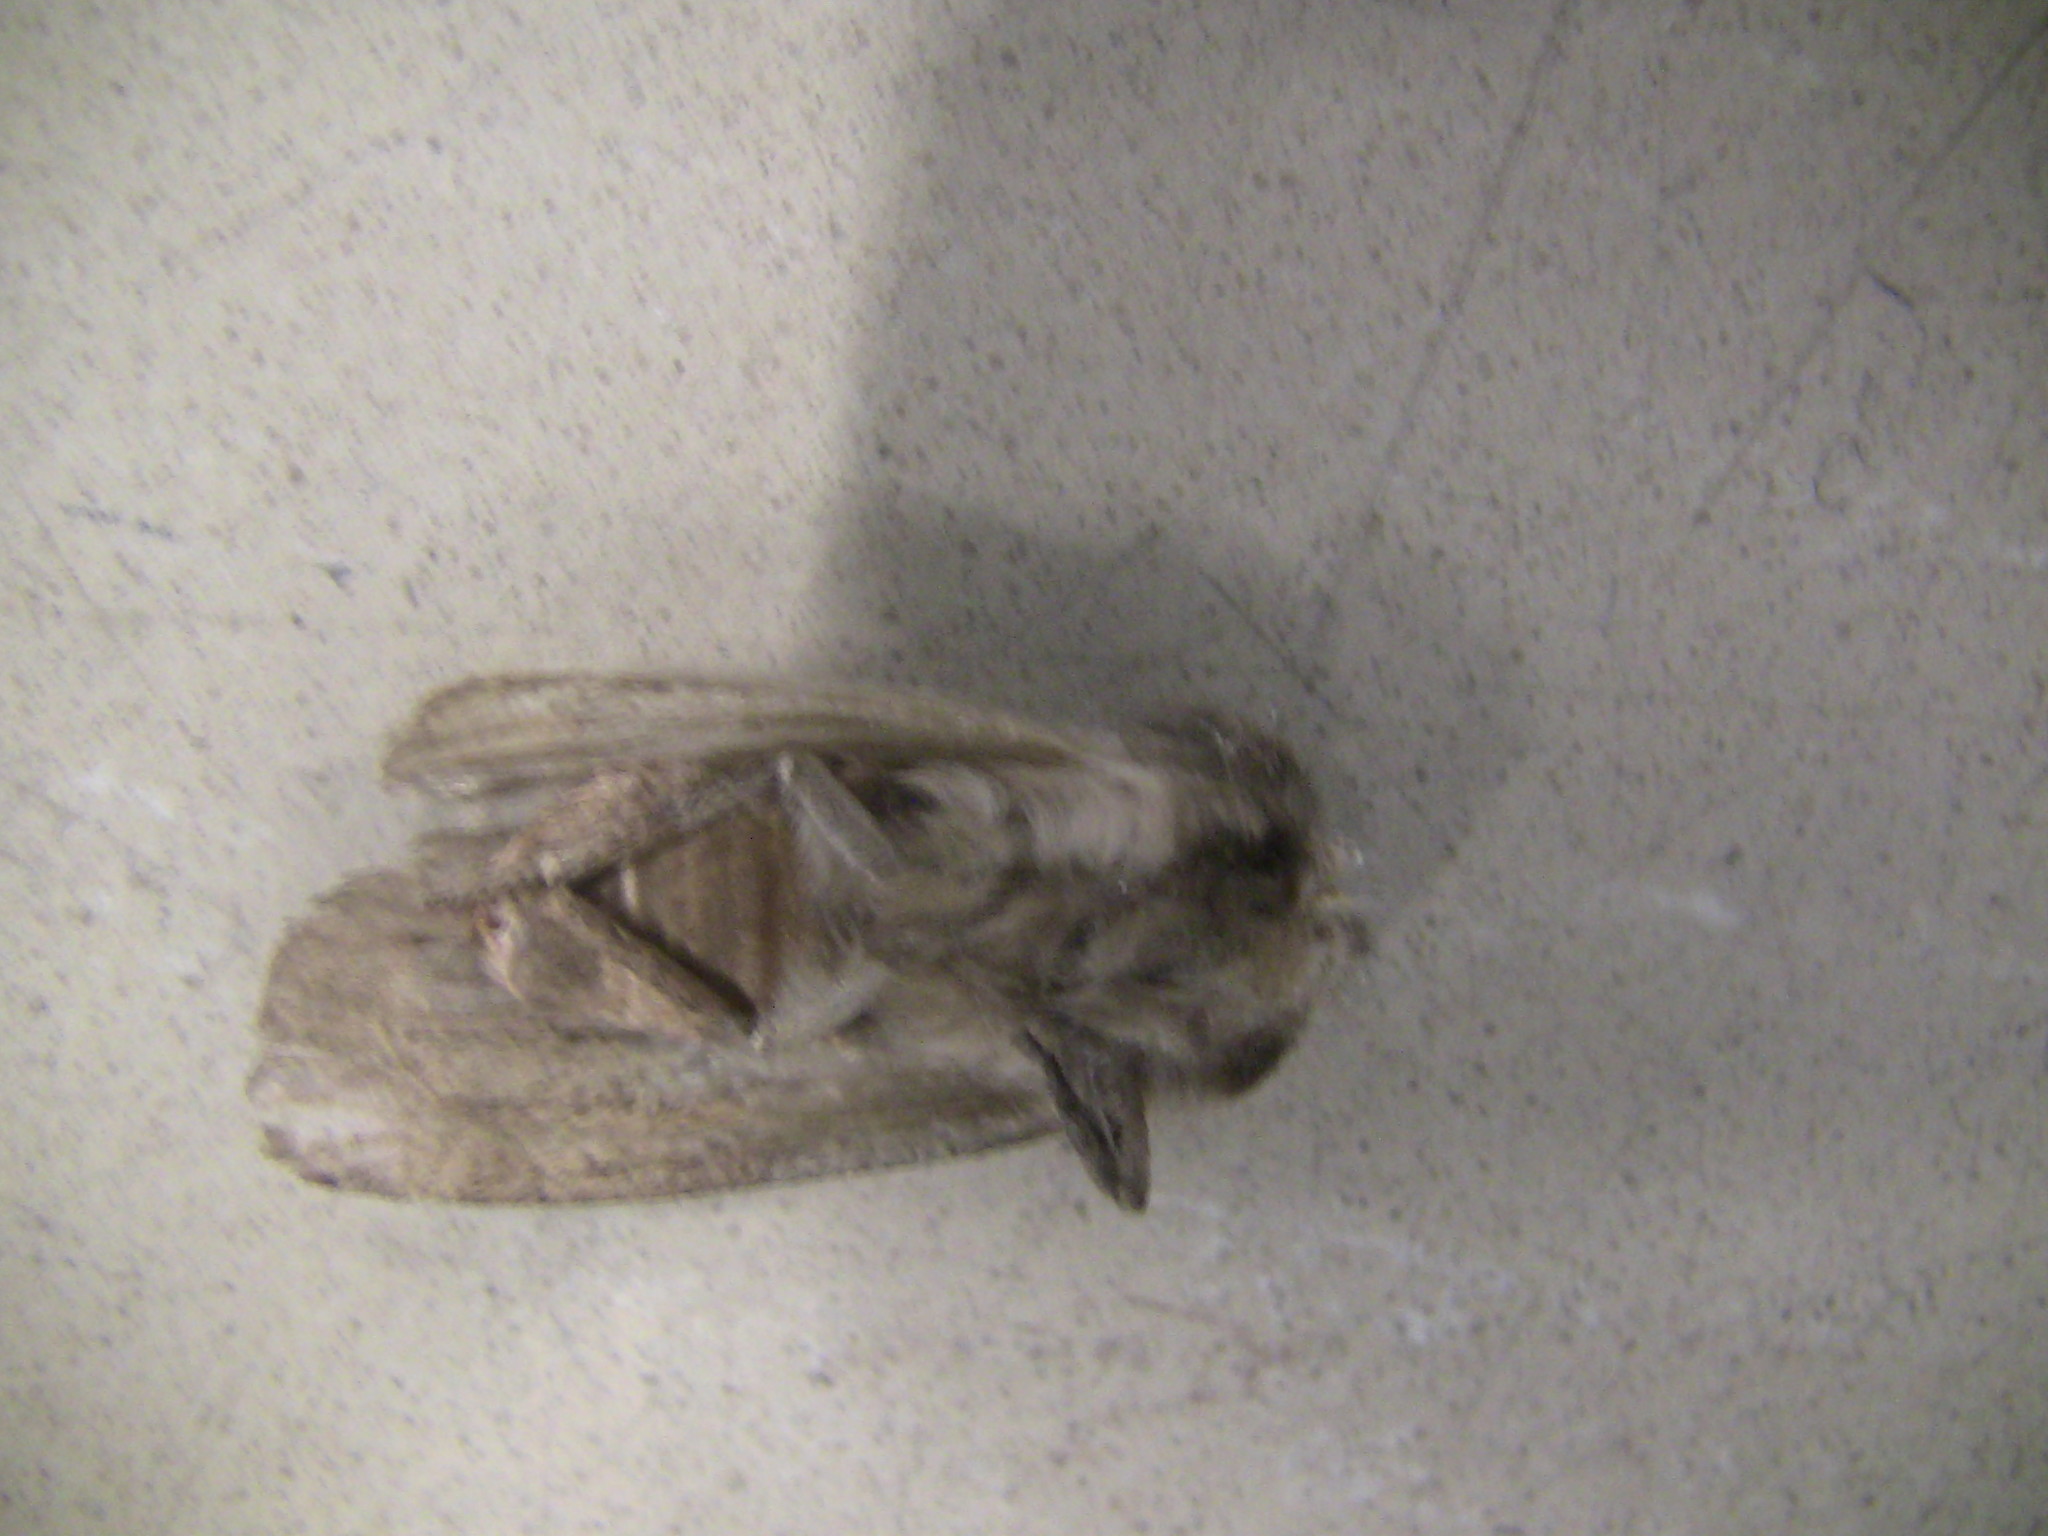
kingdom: Animalia
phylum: Arthropoda
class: Insecta
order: Lepidoptera
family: Noctuidae
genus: Ufeus
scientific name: Ufeus plicatus
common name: Folded satyr
